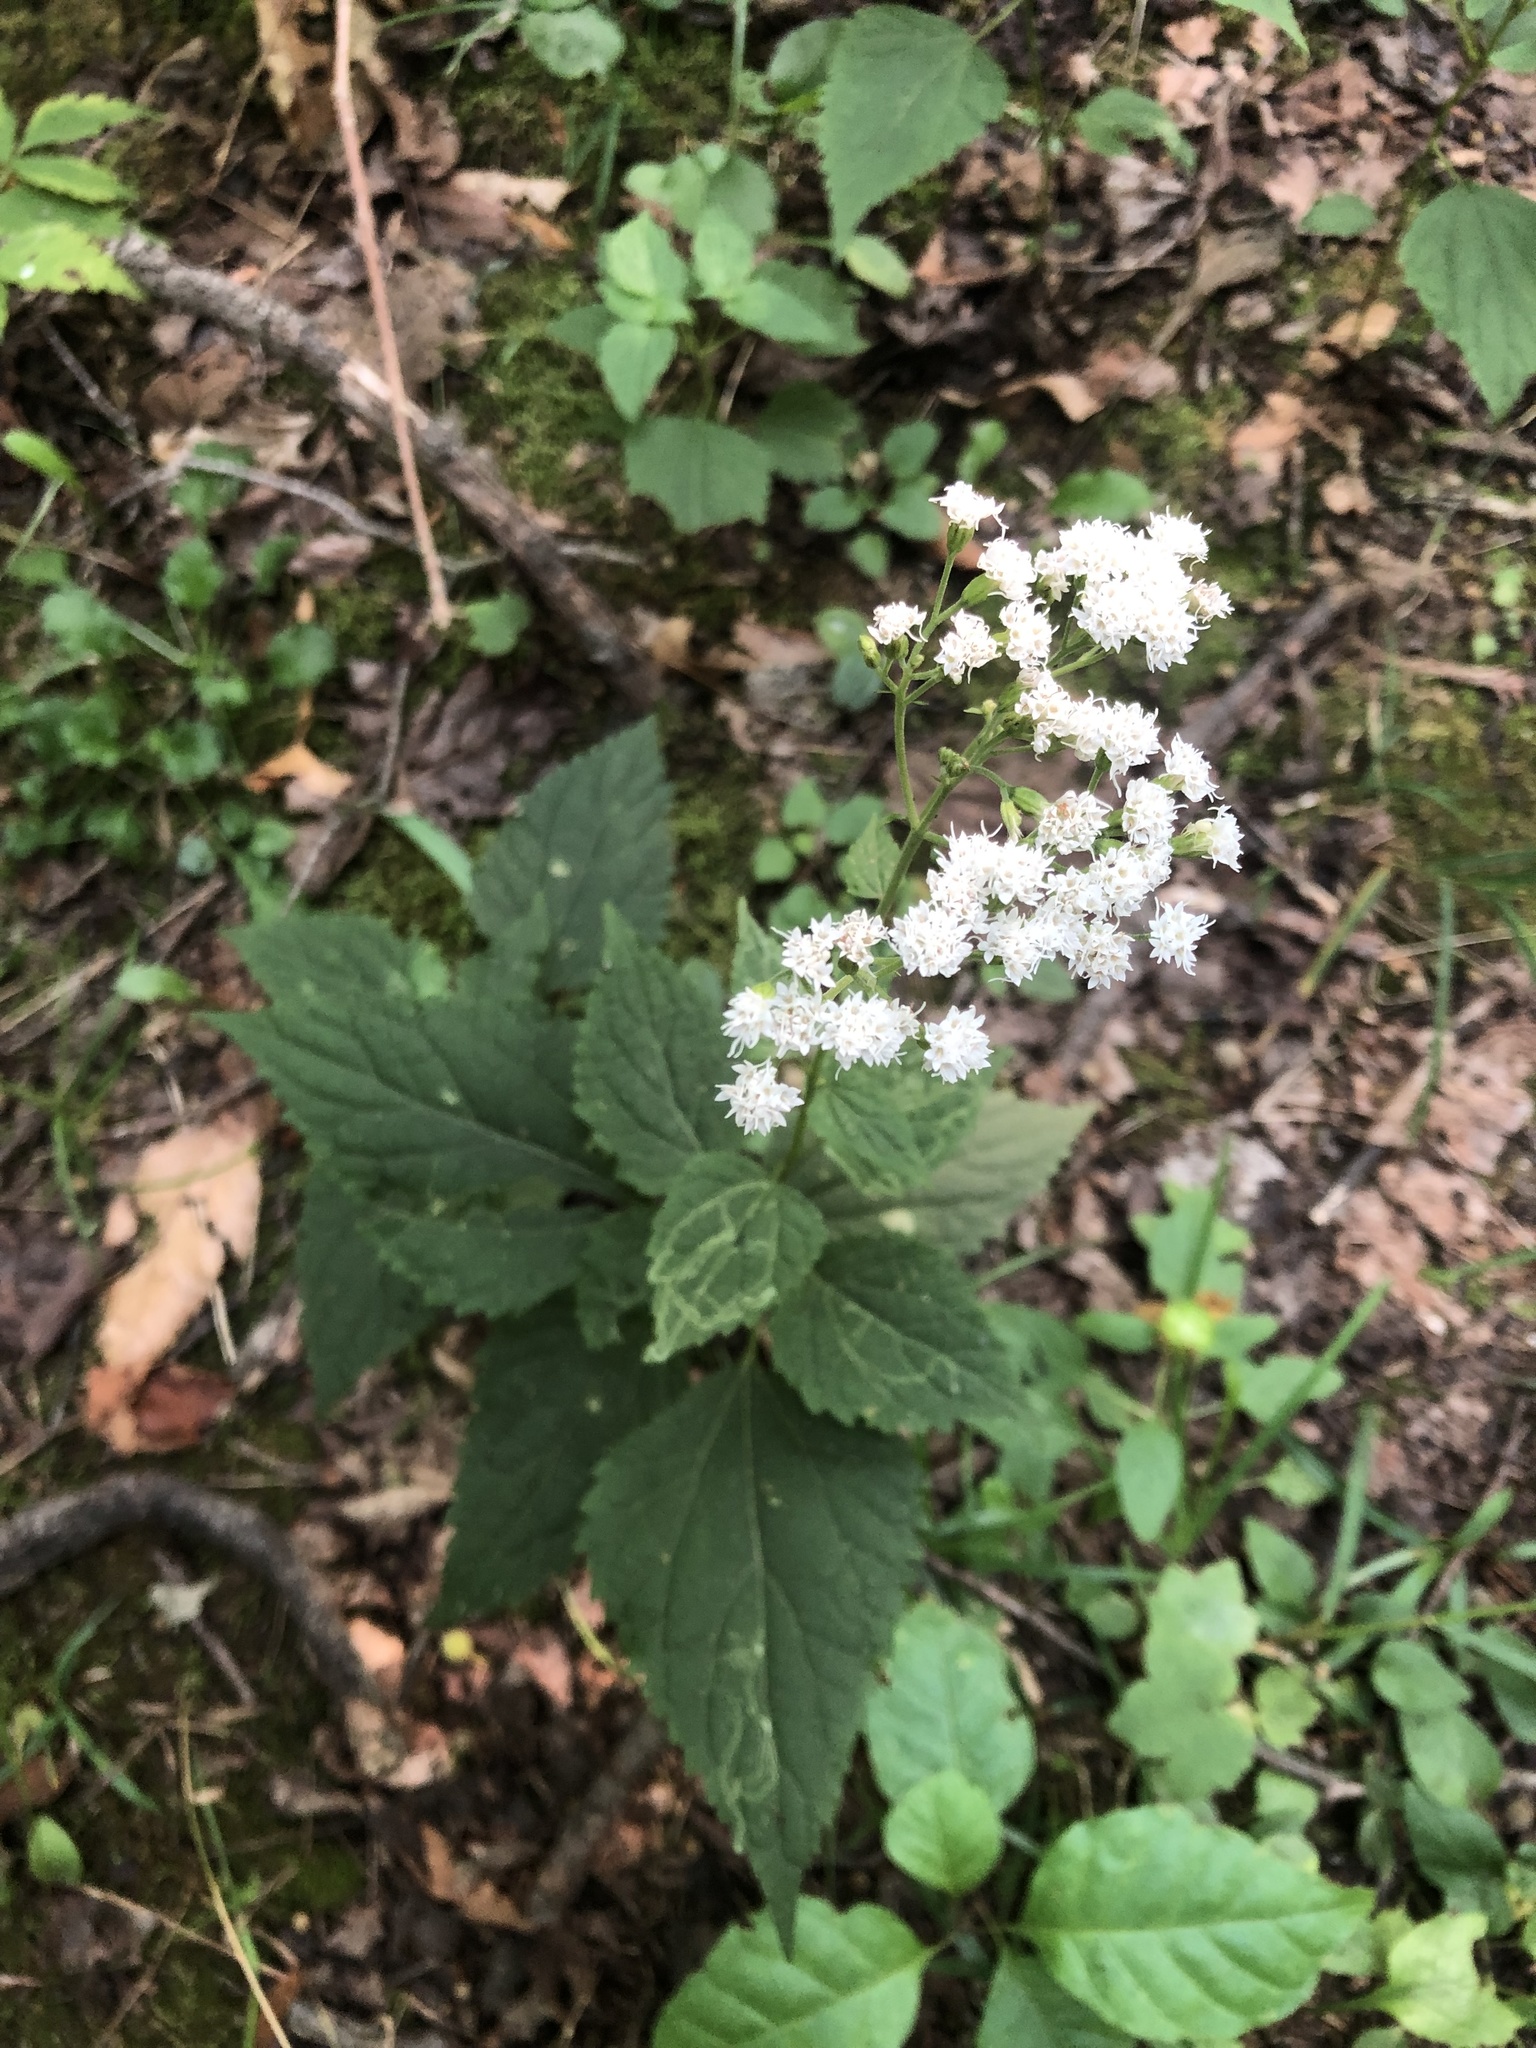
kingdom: Plantae
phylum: Tracheophyta
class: Magnoliopsida
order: Asterales
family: Asteraceae
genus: Ageratina
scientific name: Ageratina altissima
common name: White snakeroot
